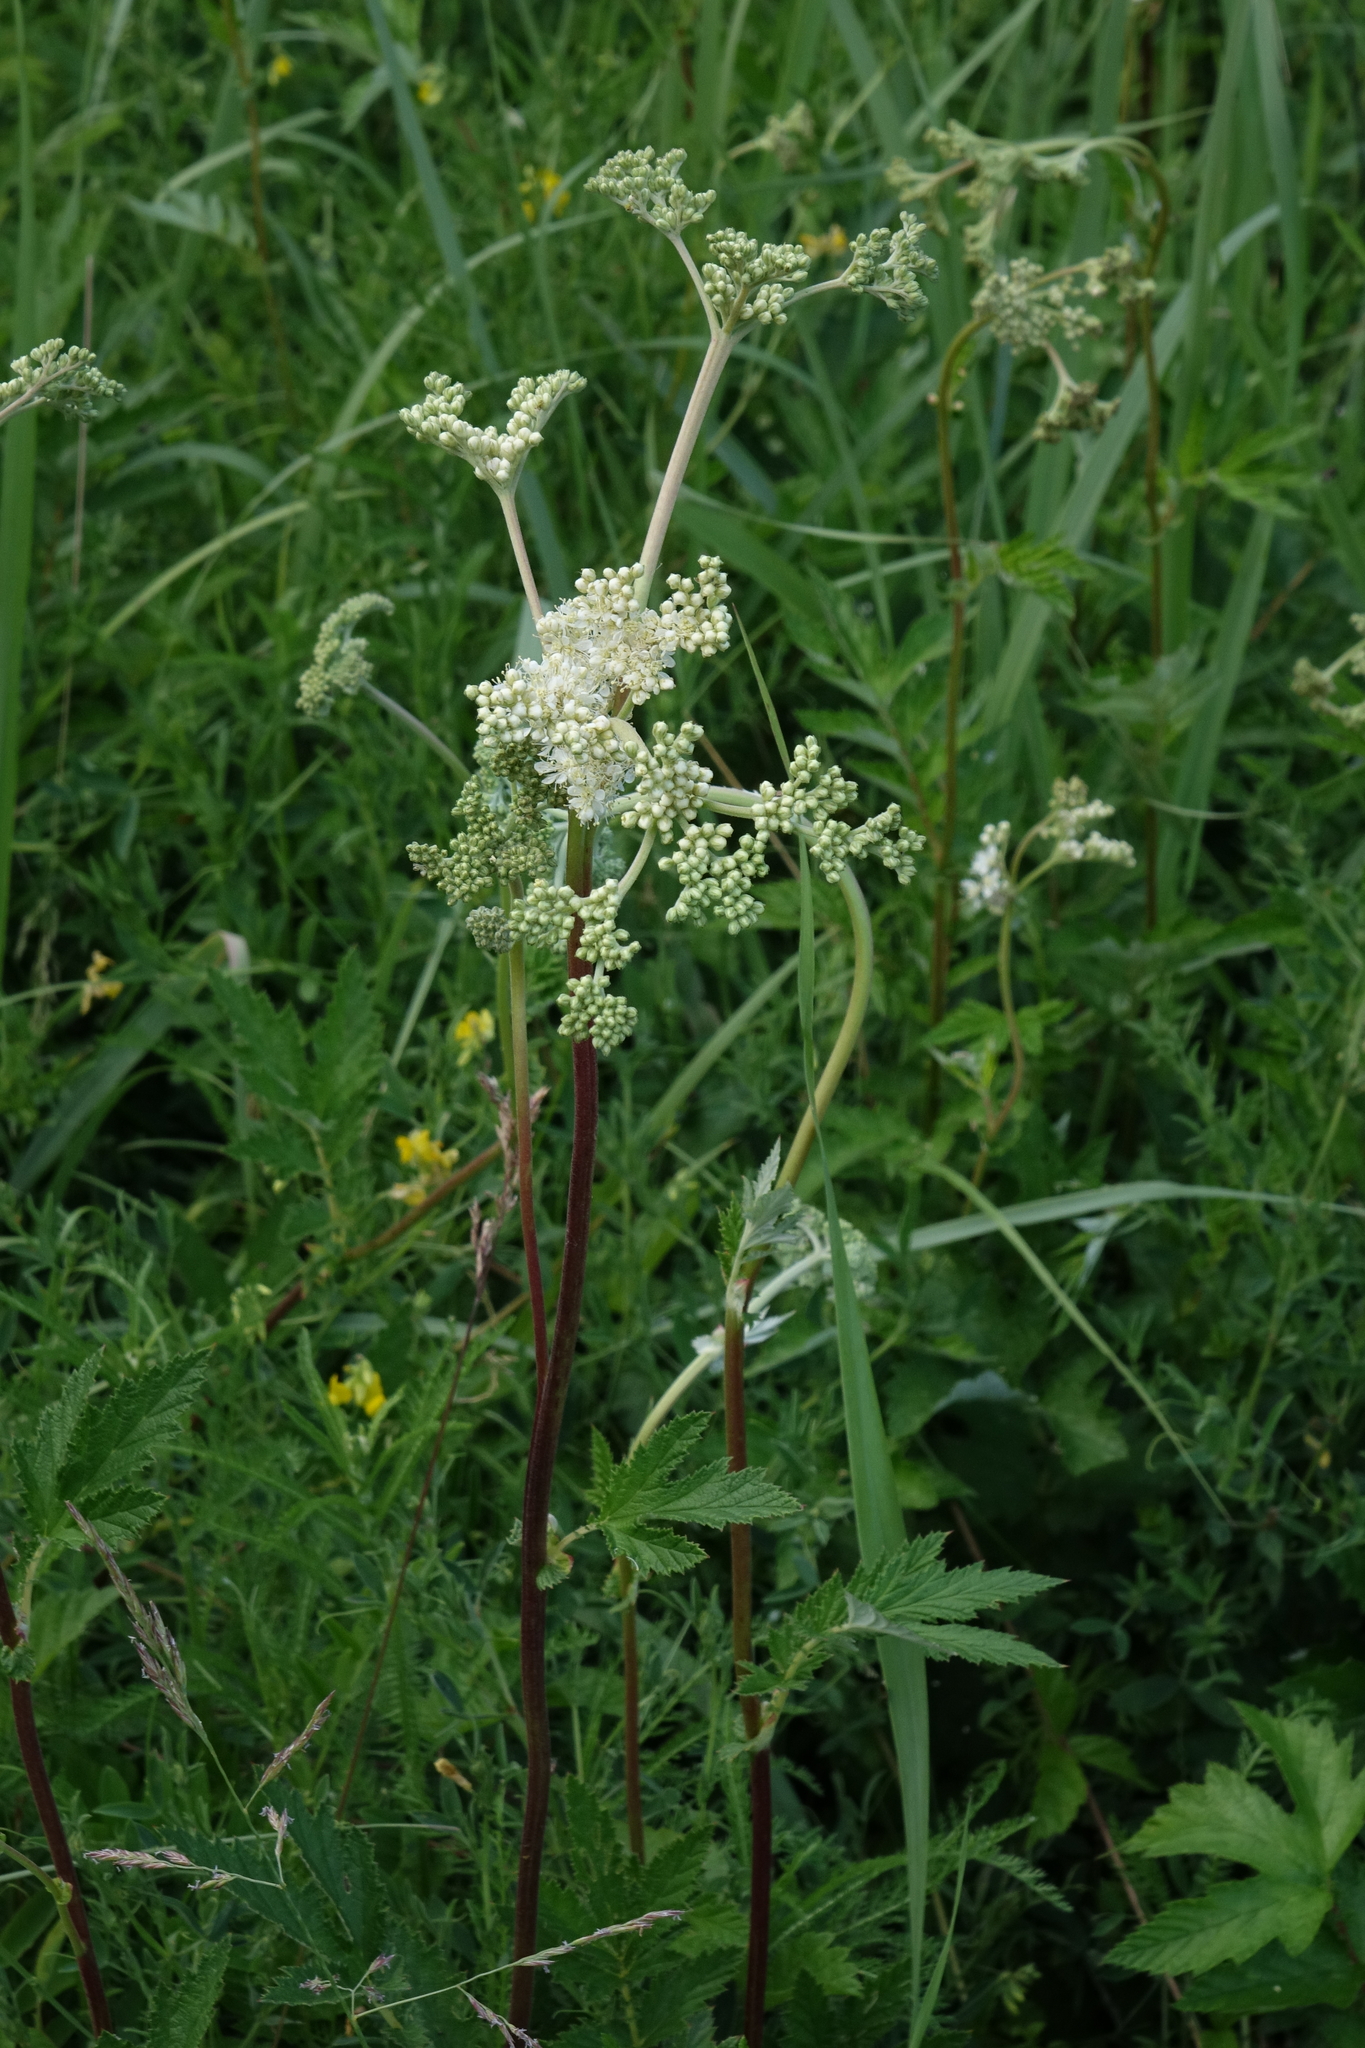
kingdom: Plantae
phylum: Tracheophyta
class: Magnoliopsida
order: Rosales
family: Rosaceae
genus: Filipendula
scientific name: Filipendula ulmaria
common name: Meadowsweet
